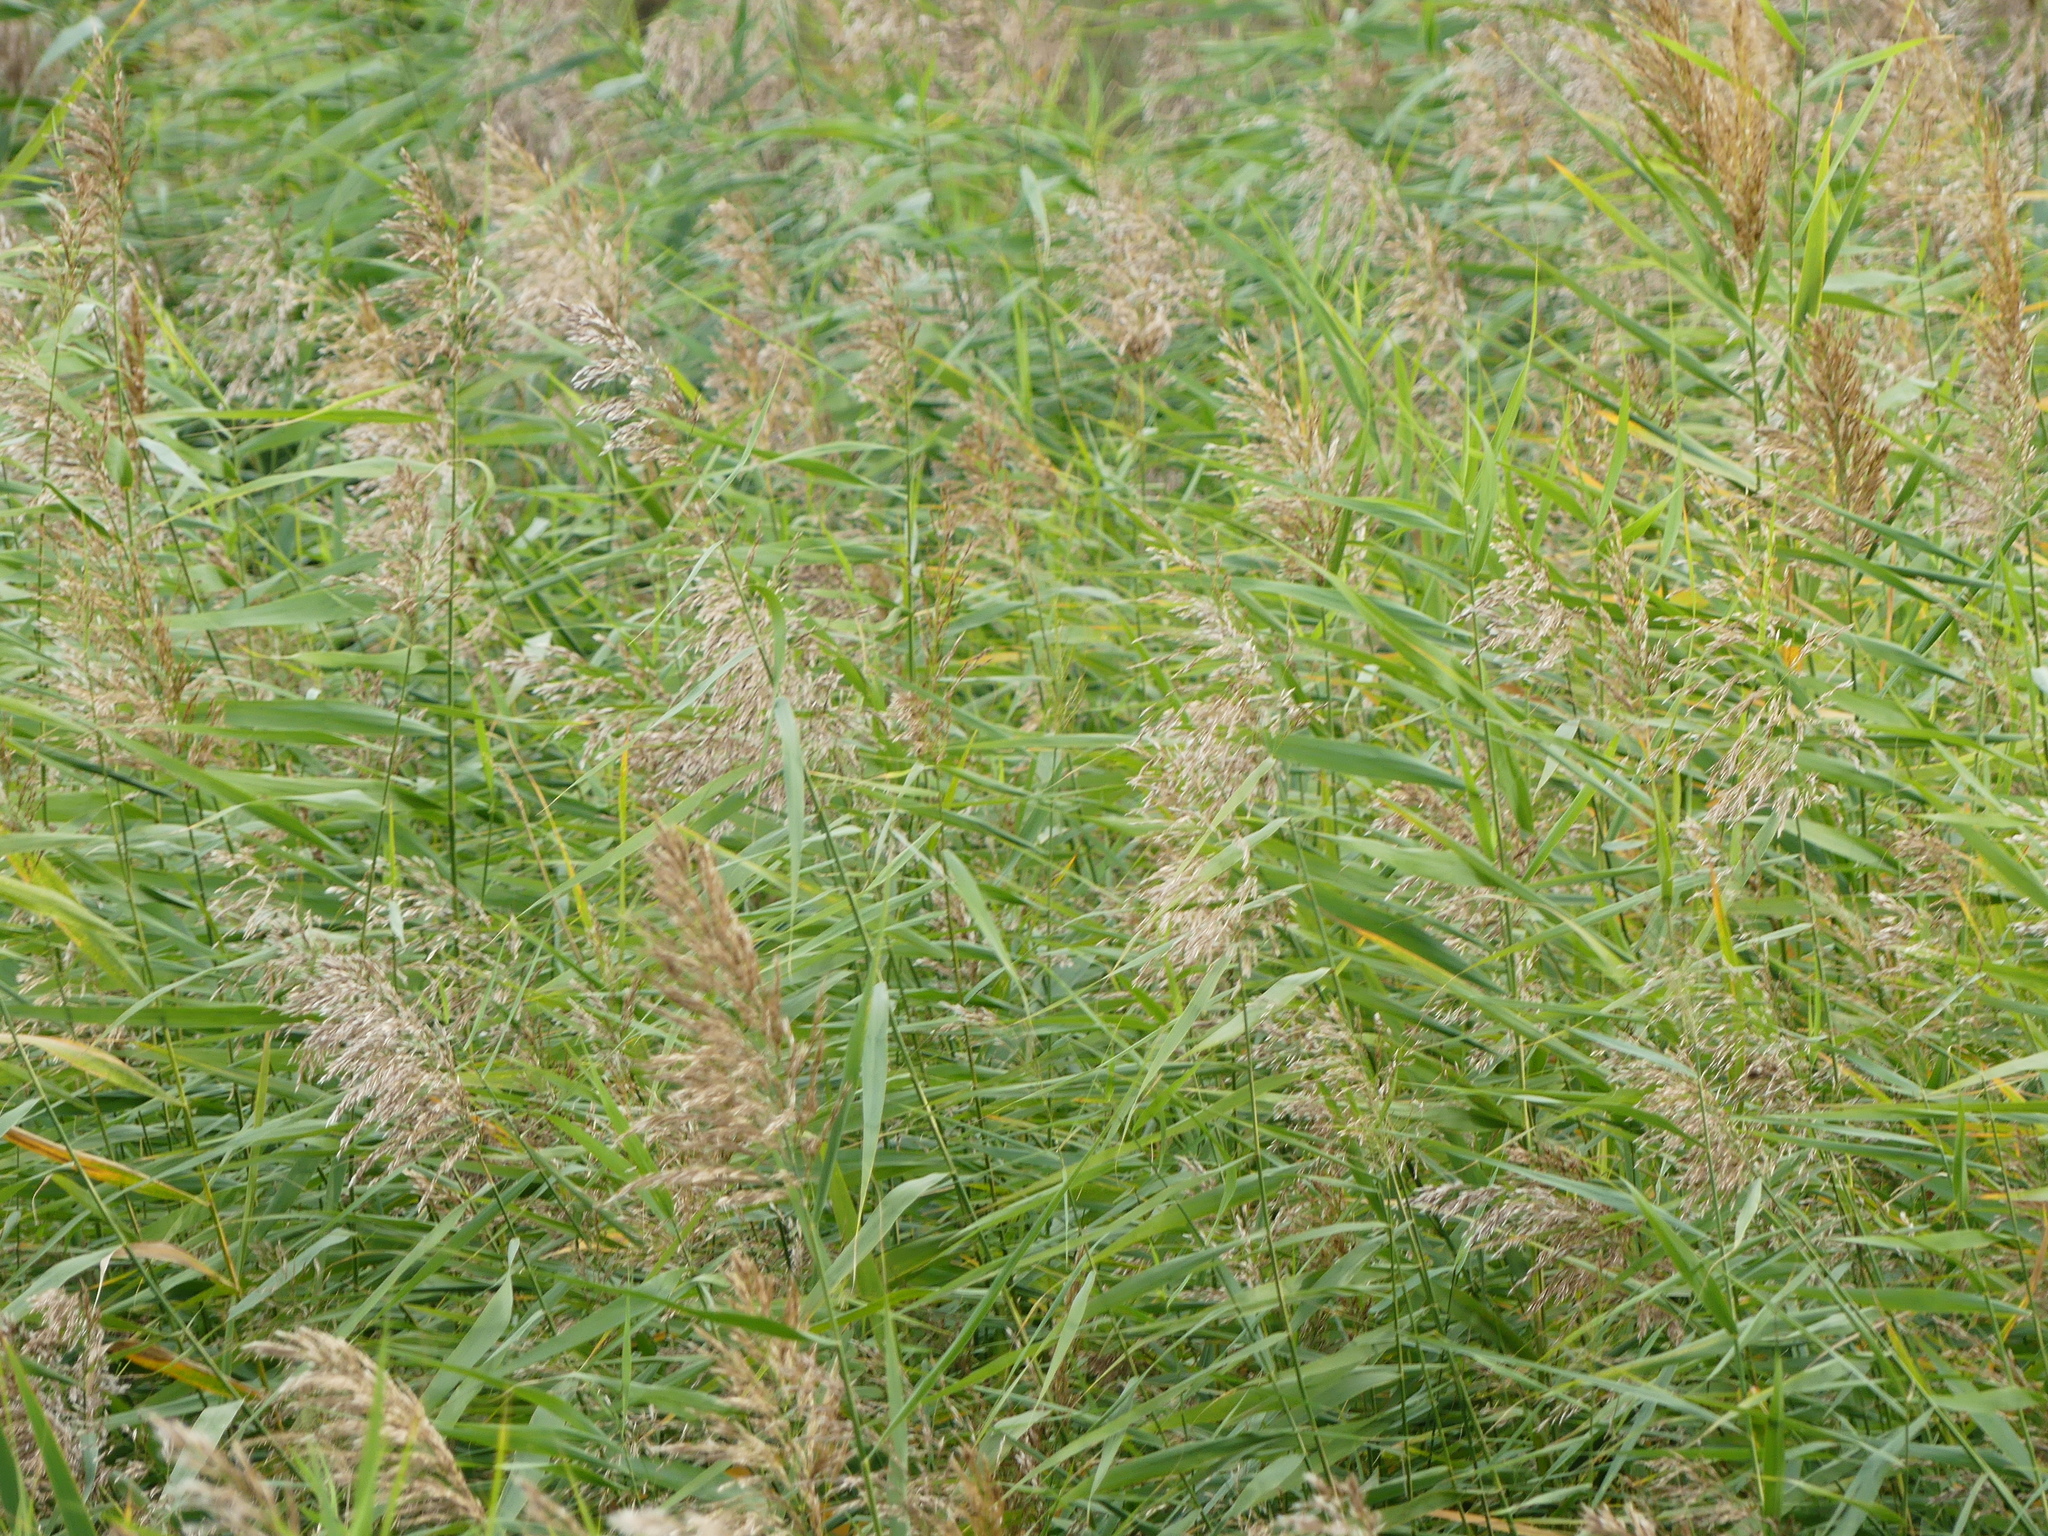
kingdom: Plantae
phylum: Tracheophyta
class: Liliopsida
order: Poales
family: Poaceae
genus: Phragmites
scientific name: Phragmites australis
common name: Common reed
